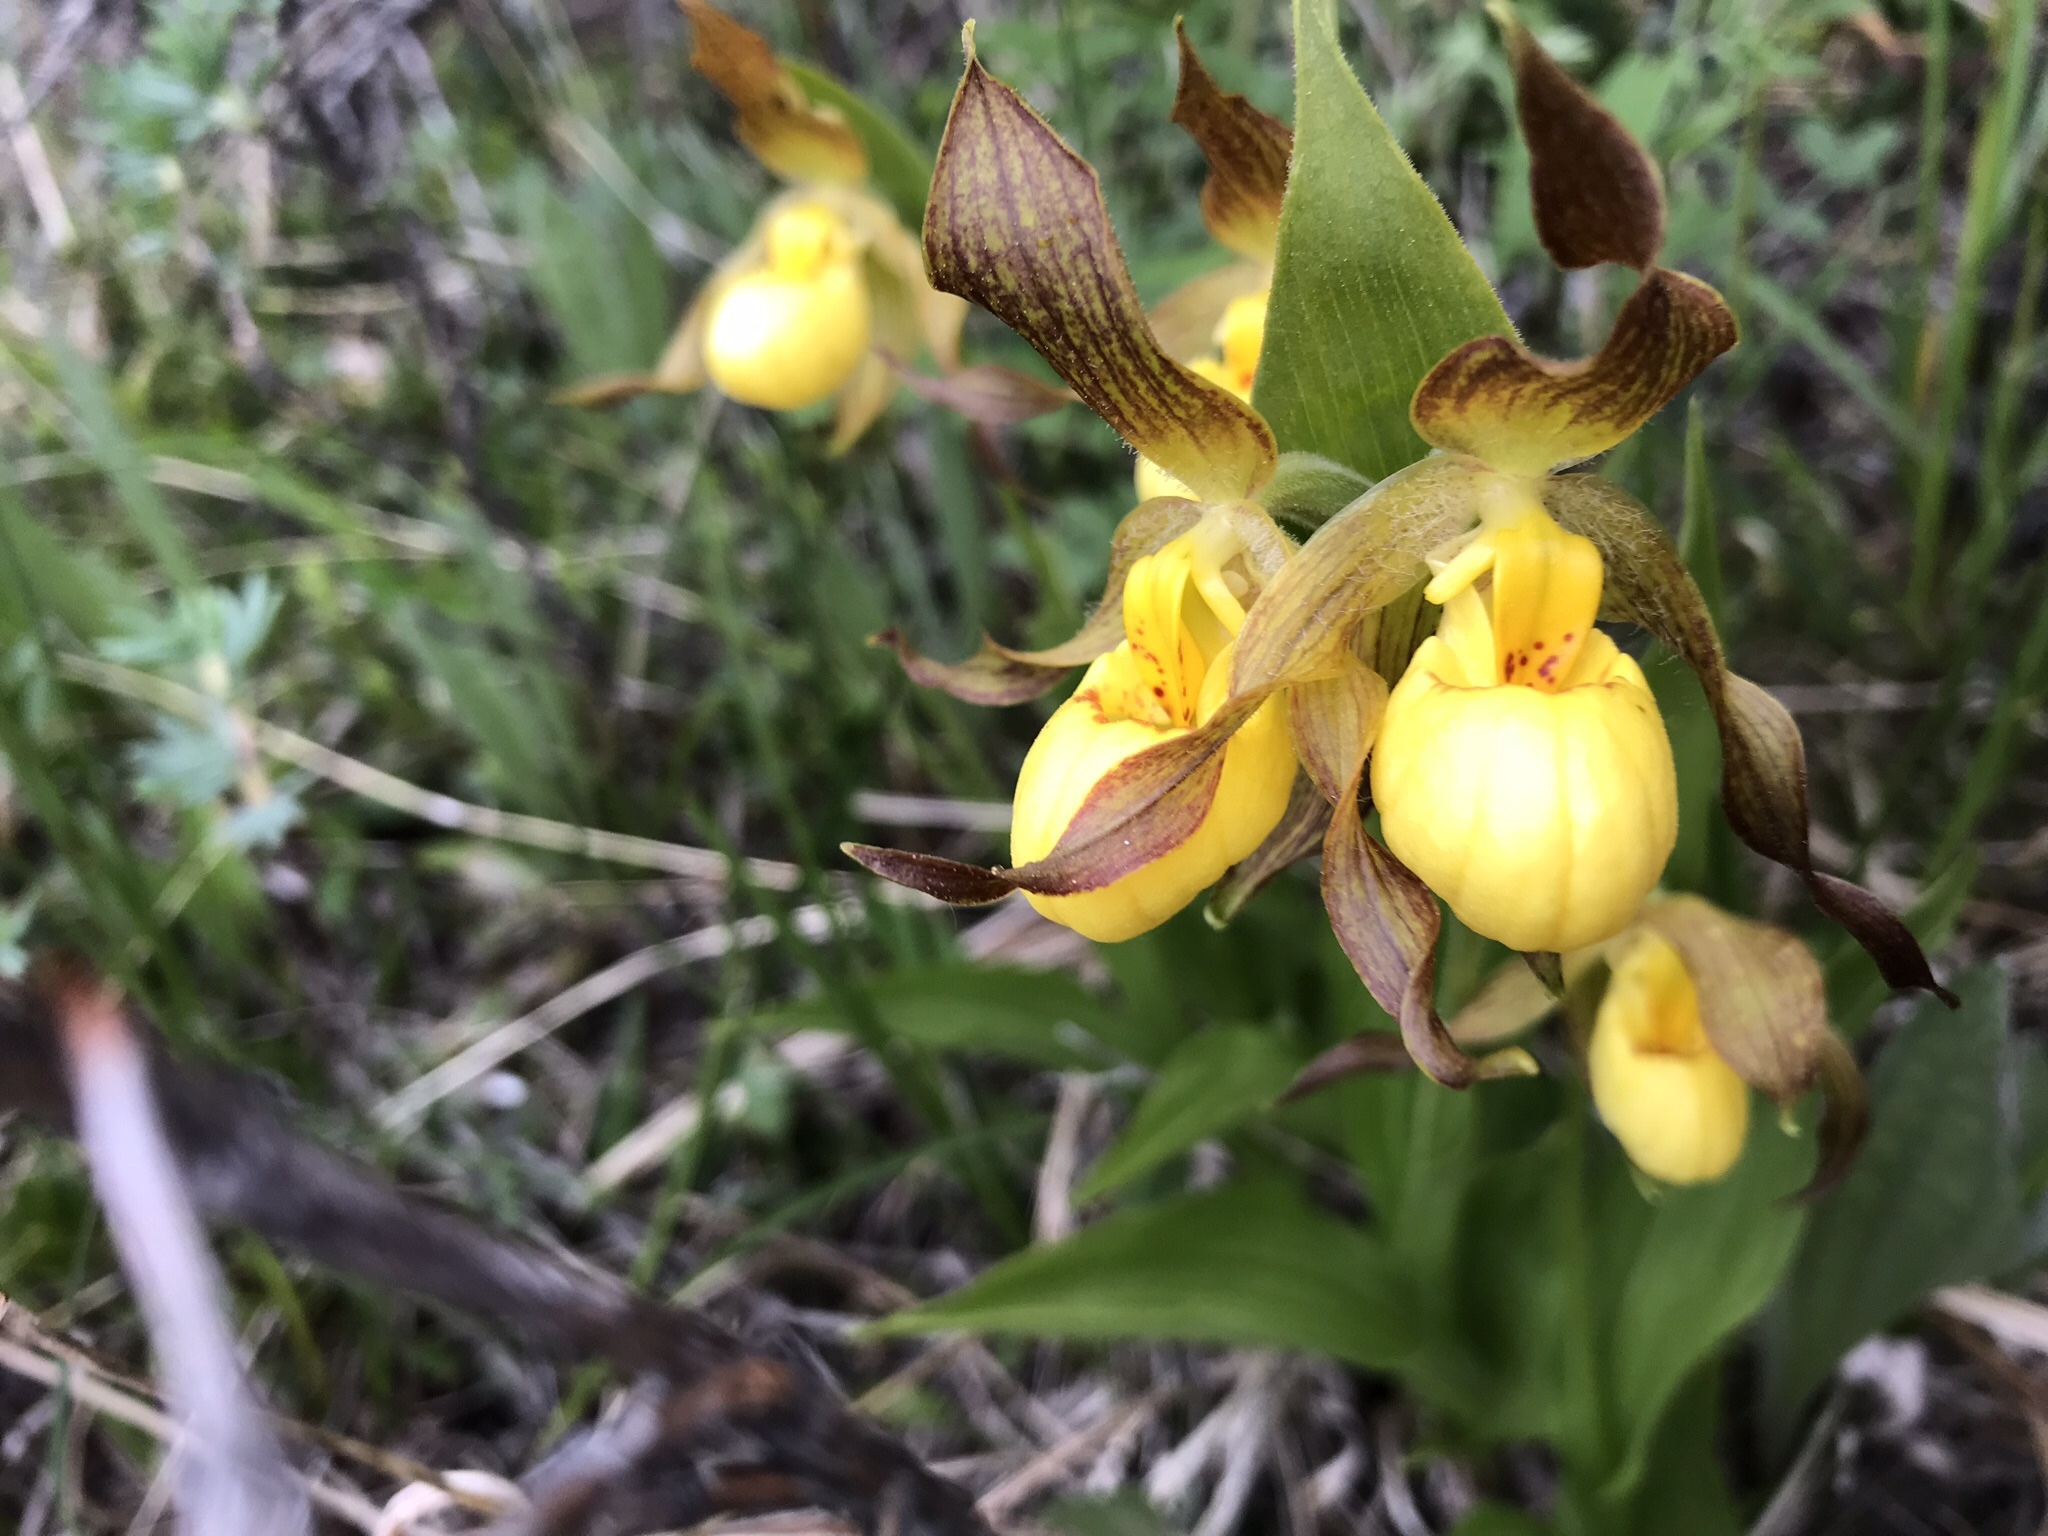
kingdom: Plantae
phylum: Tracheophyta
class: Liliopsida
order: Asparagales
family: Orchidaceae
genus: Cypripedium
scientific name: Cypripedium parviflorum
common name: American yellow lady's-slipper
